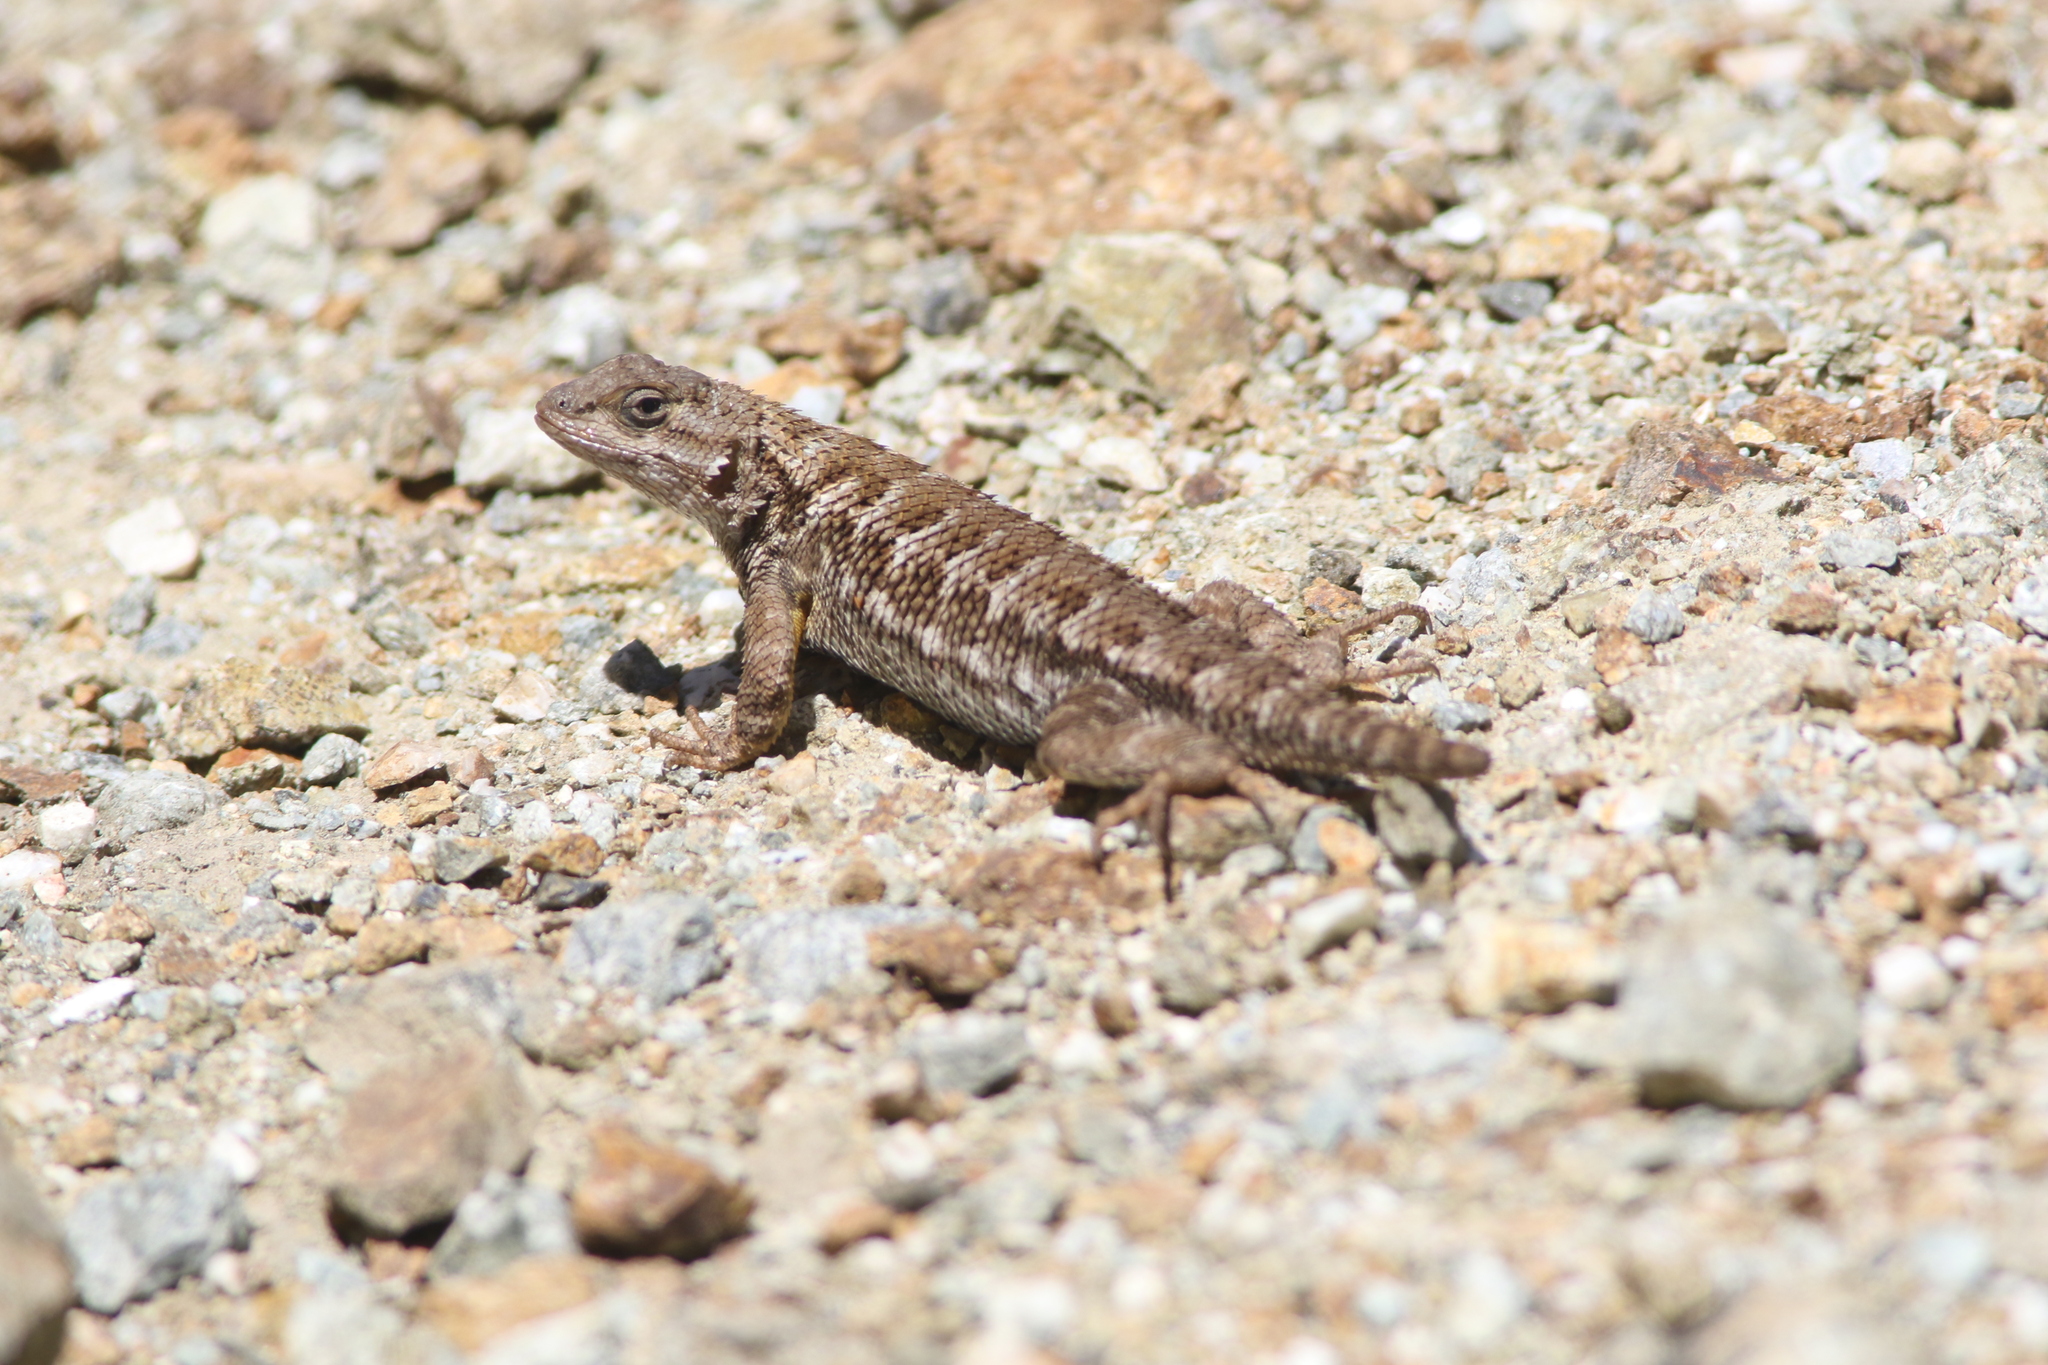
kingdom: Animalia
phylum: Chordata
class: Squamata
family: Phrynosomatidae
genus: Sceloporus
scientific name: Sceloporus occidentalis
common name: Western fence lizard
